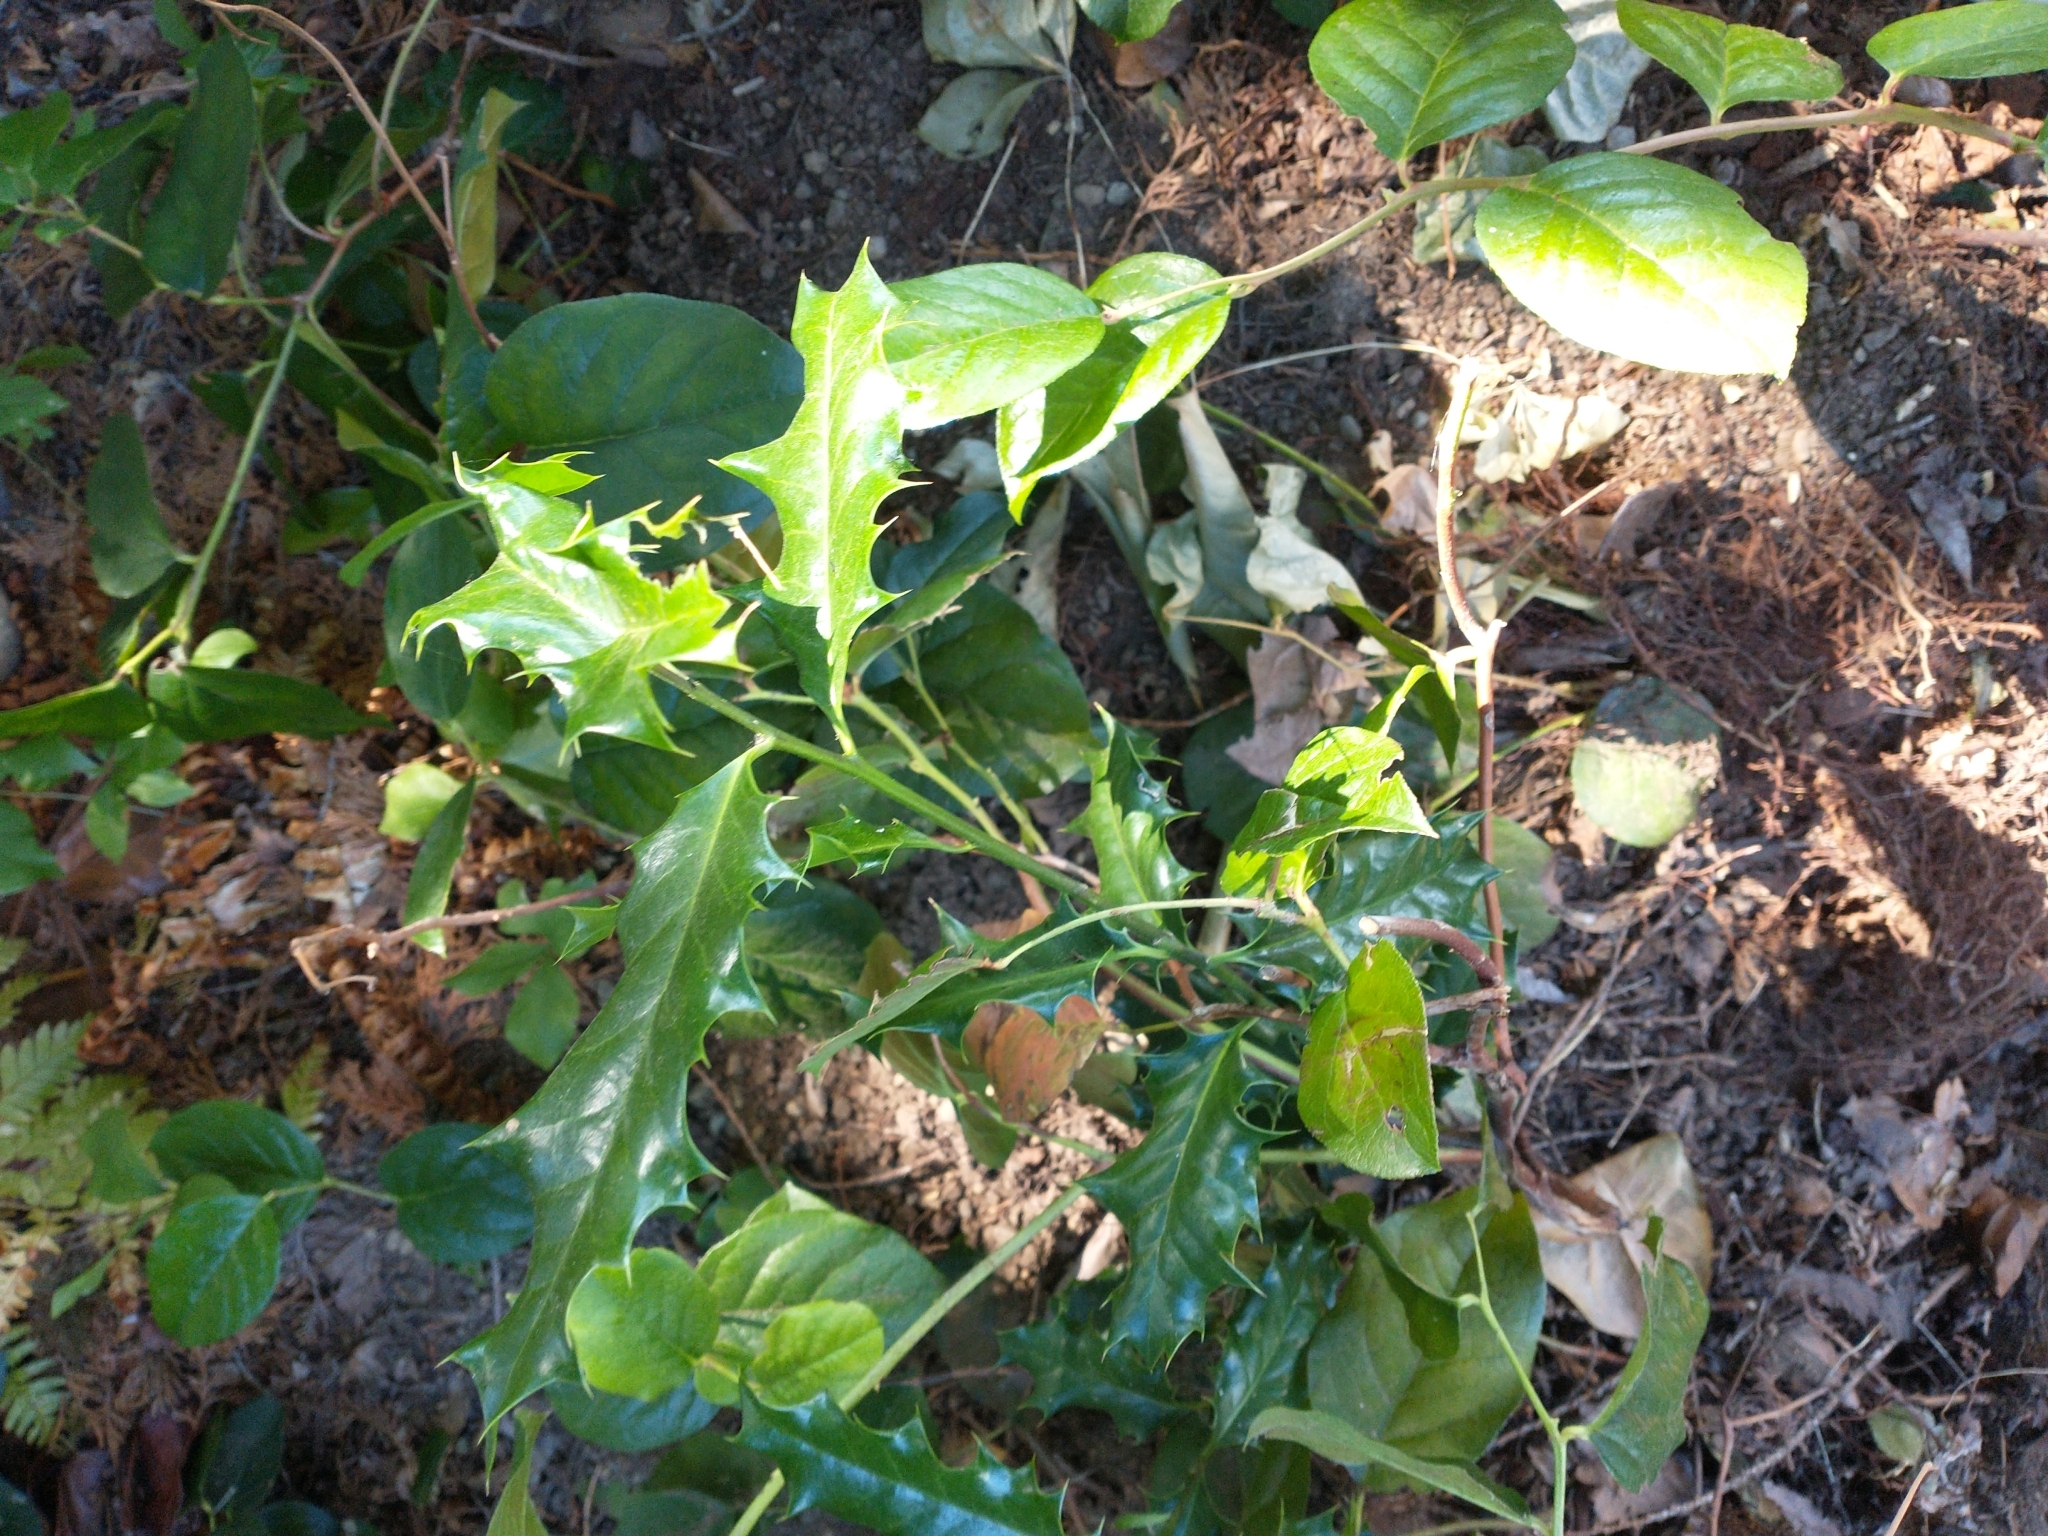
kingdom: Plantae
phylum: Tracheophyta
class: Magnoliopsida
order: Aquifoliales
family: Aquifoliaceae
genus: Ilex
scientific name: Ilex aquifolium
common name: English holly
